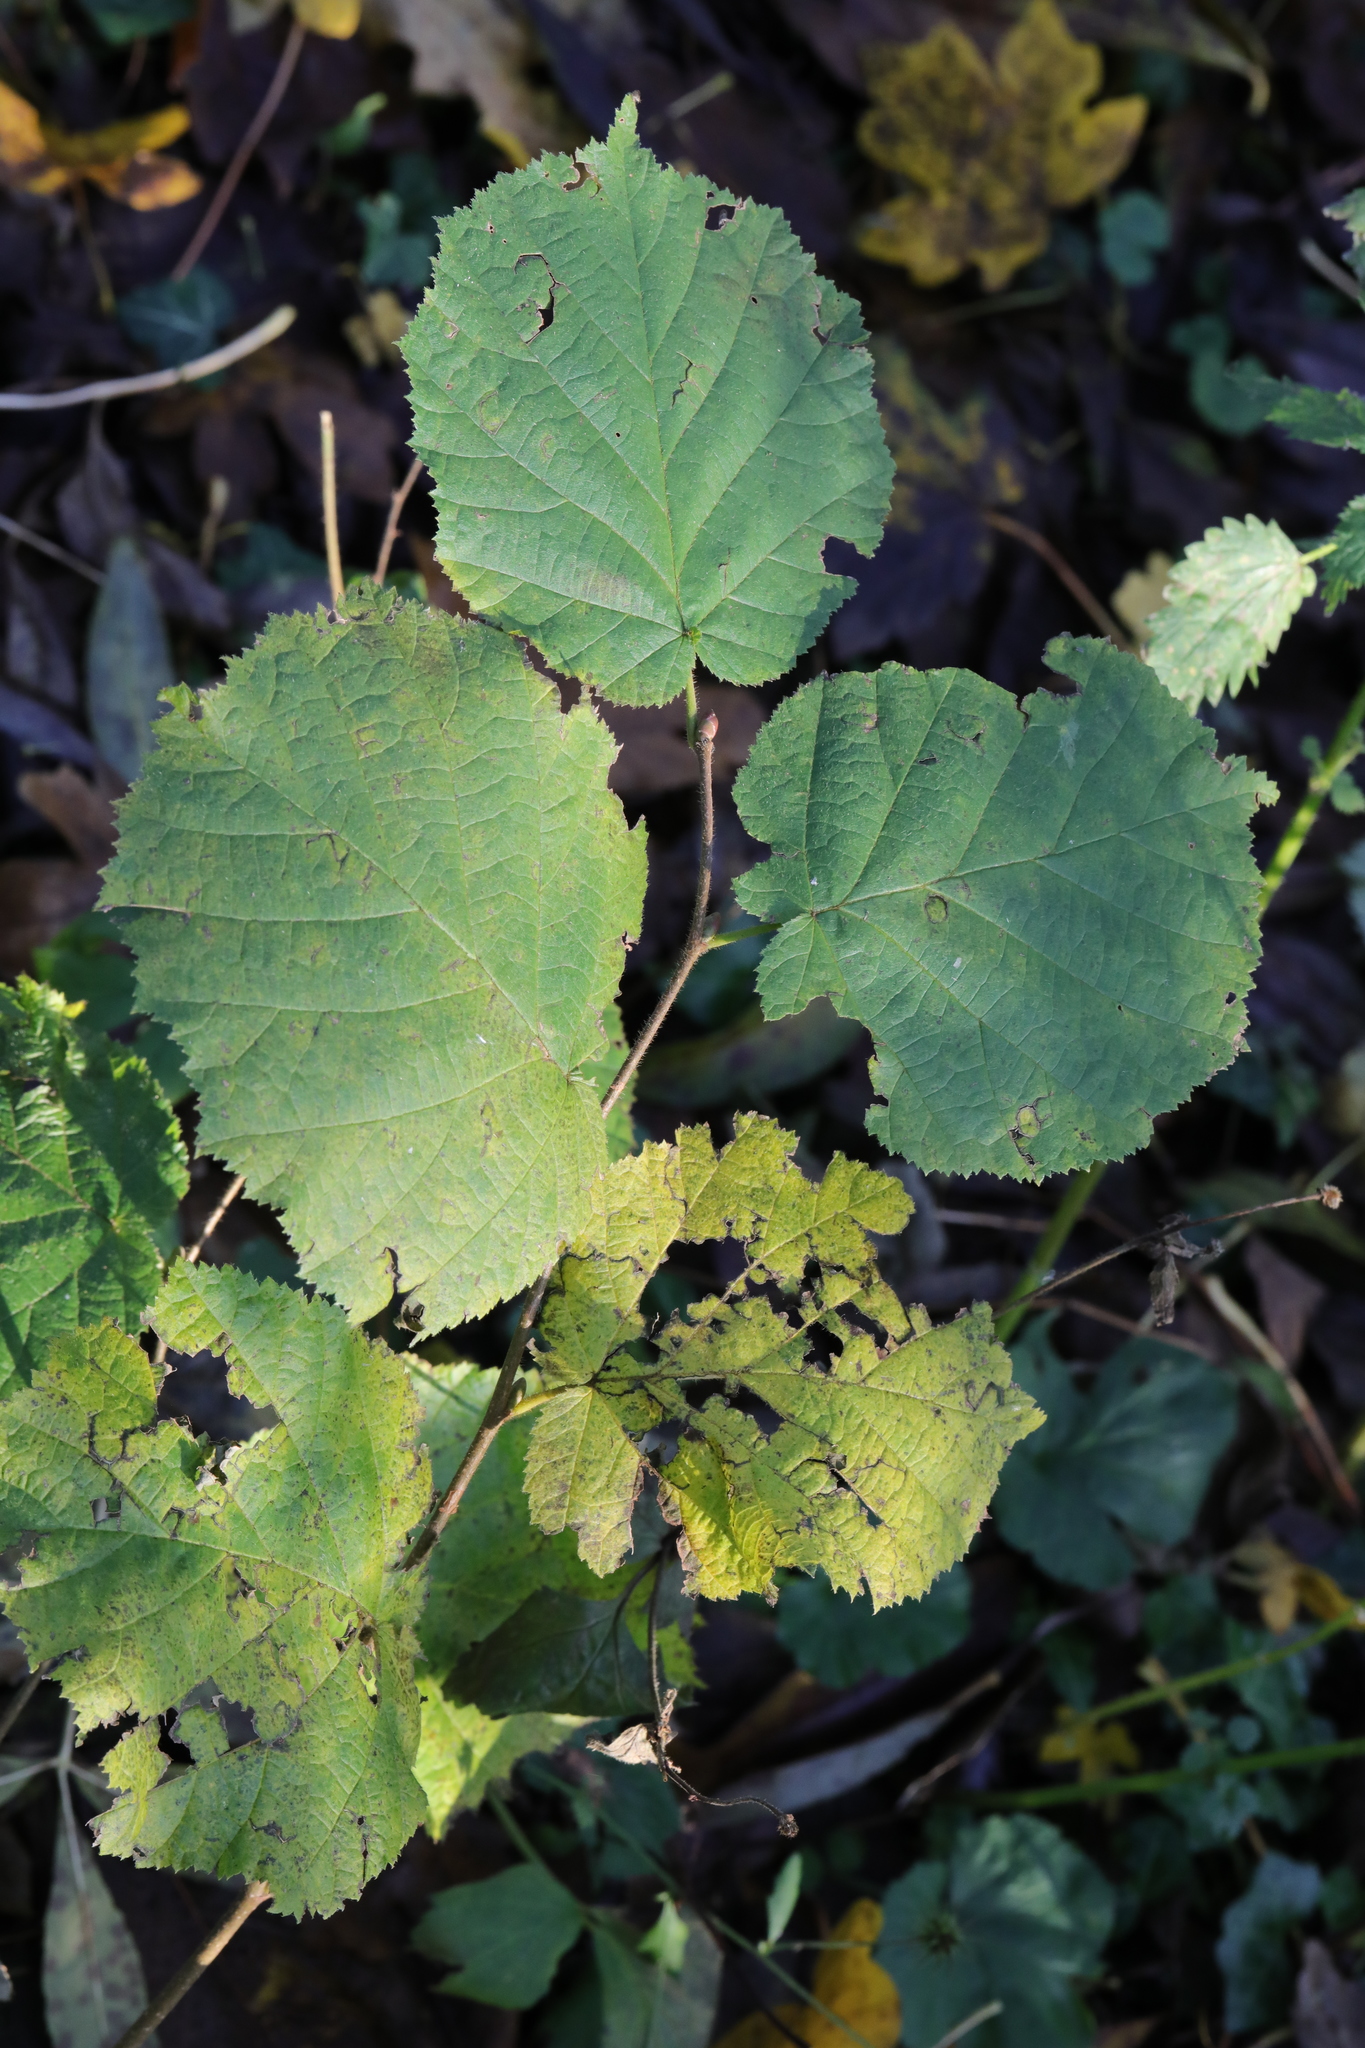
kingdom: Plantae
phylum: Tracheophyta
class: Magnoliopsida
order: Fagales
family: Betulaceae
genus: Corylus
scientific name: Corylus avellana
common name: European hazel
